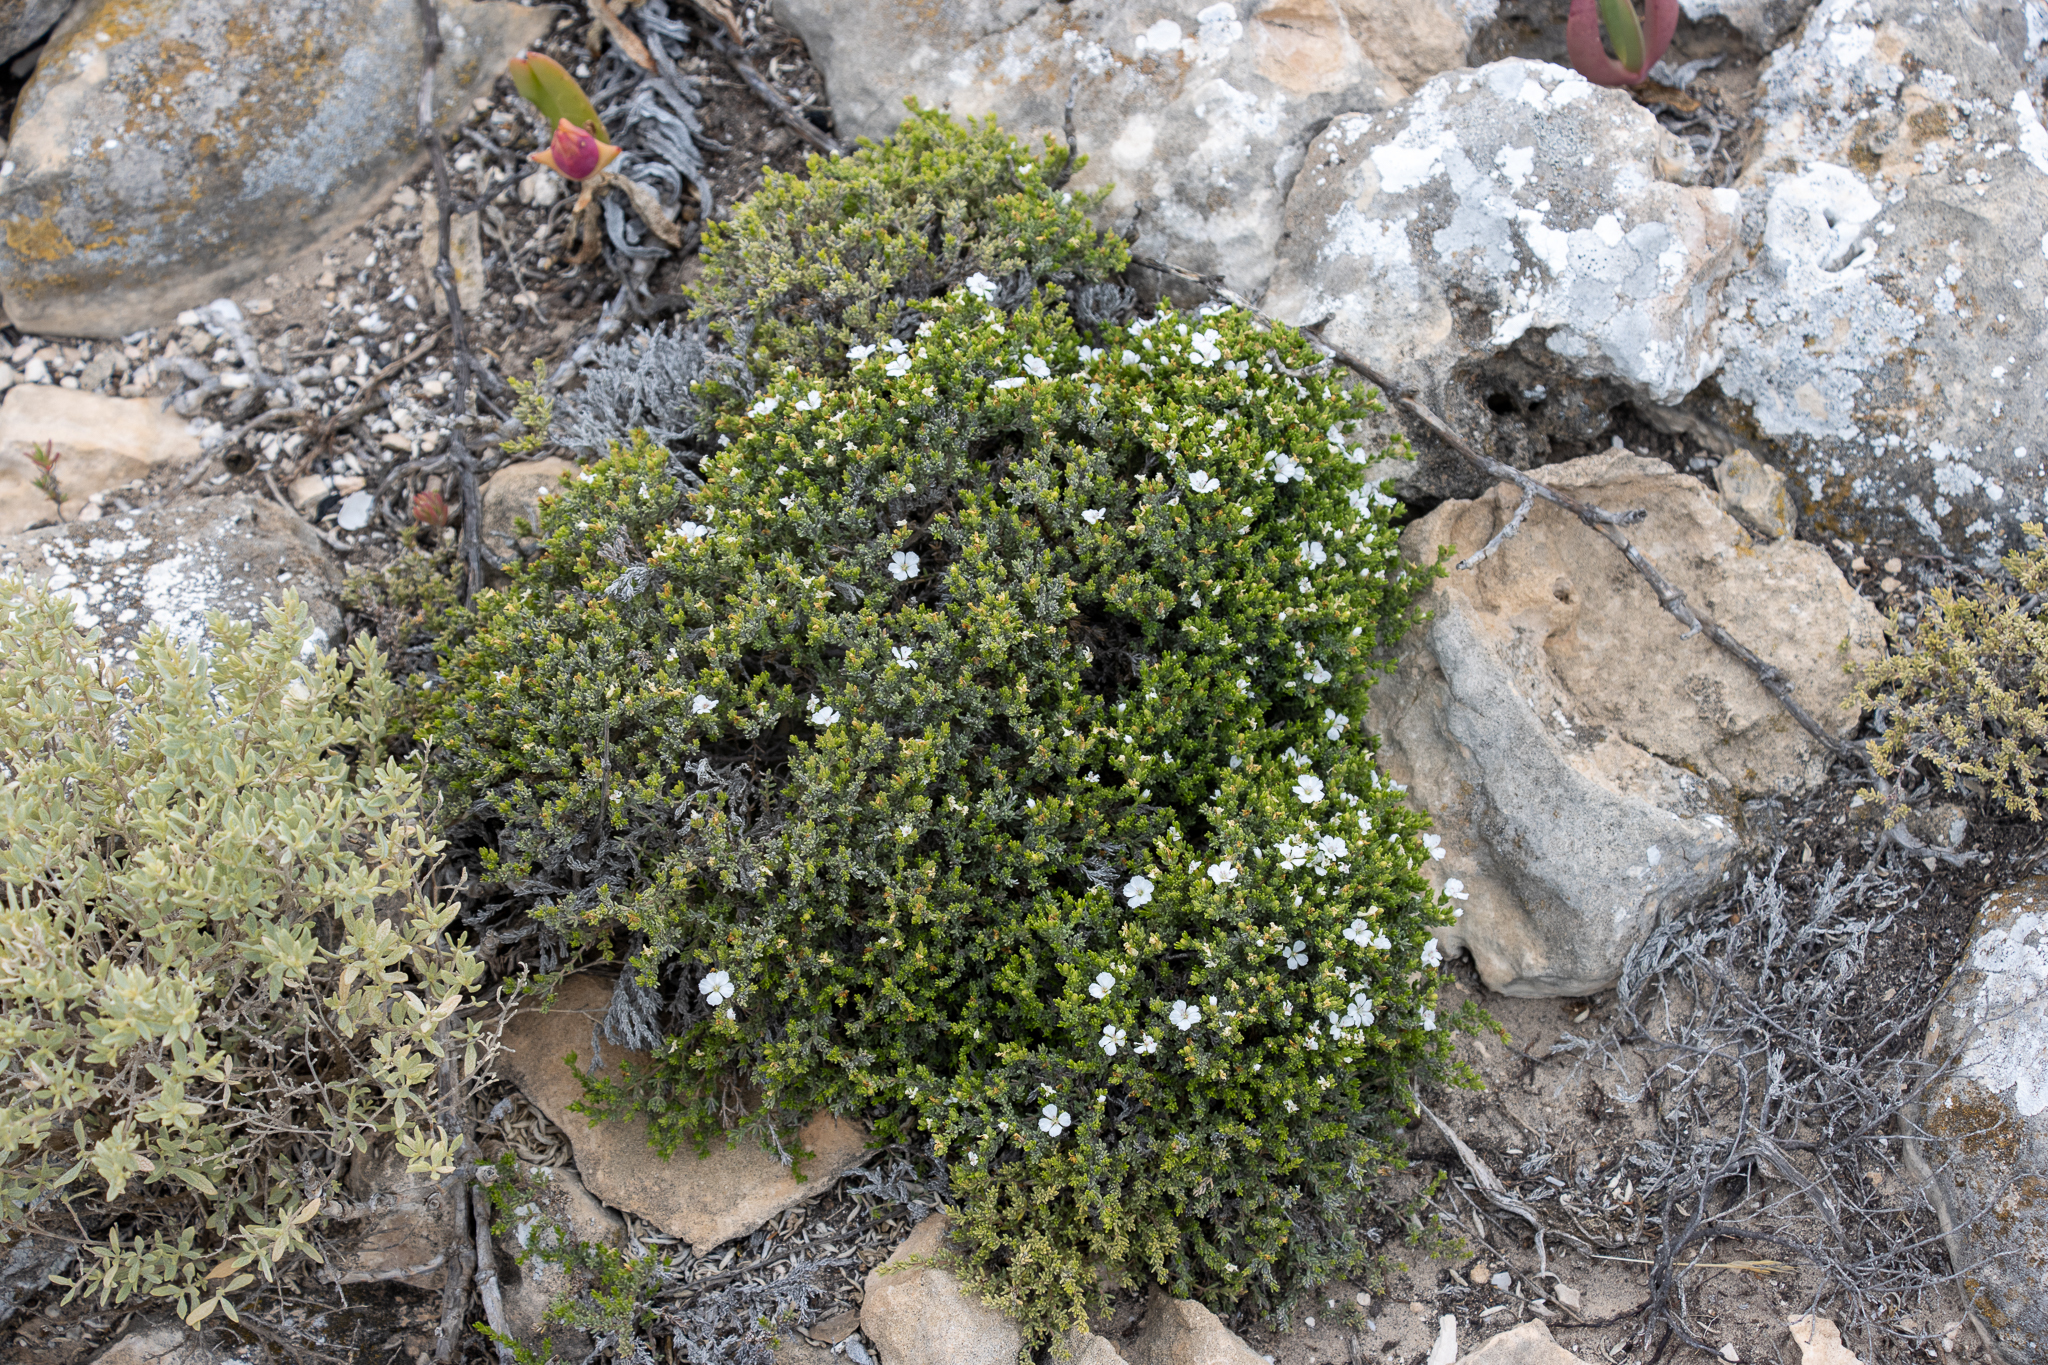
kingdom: Plantae
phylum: Tracheophyta
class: Magnoliopsida
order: Caryophyllales
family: Frankeniaceae
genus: Frankenia
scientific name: Frankenia sessilis
